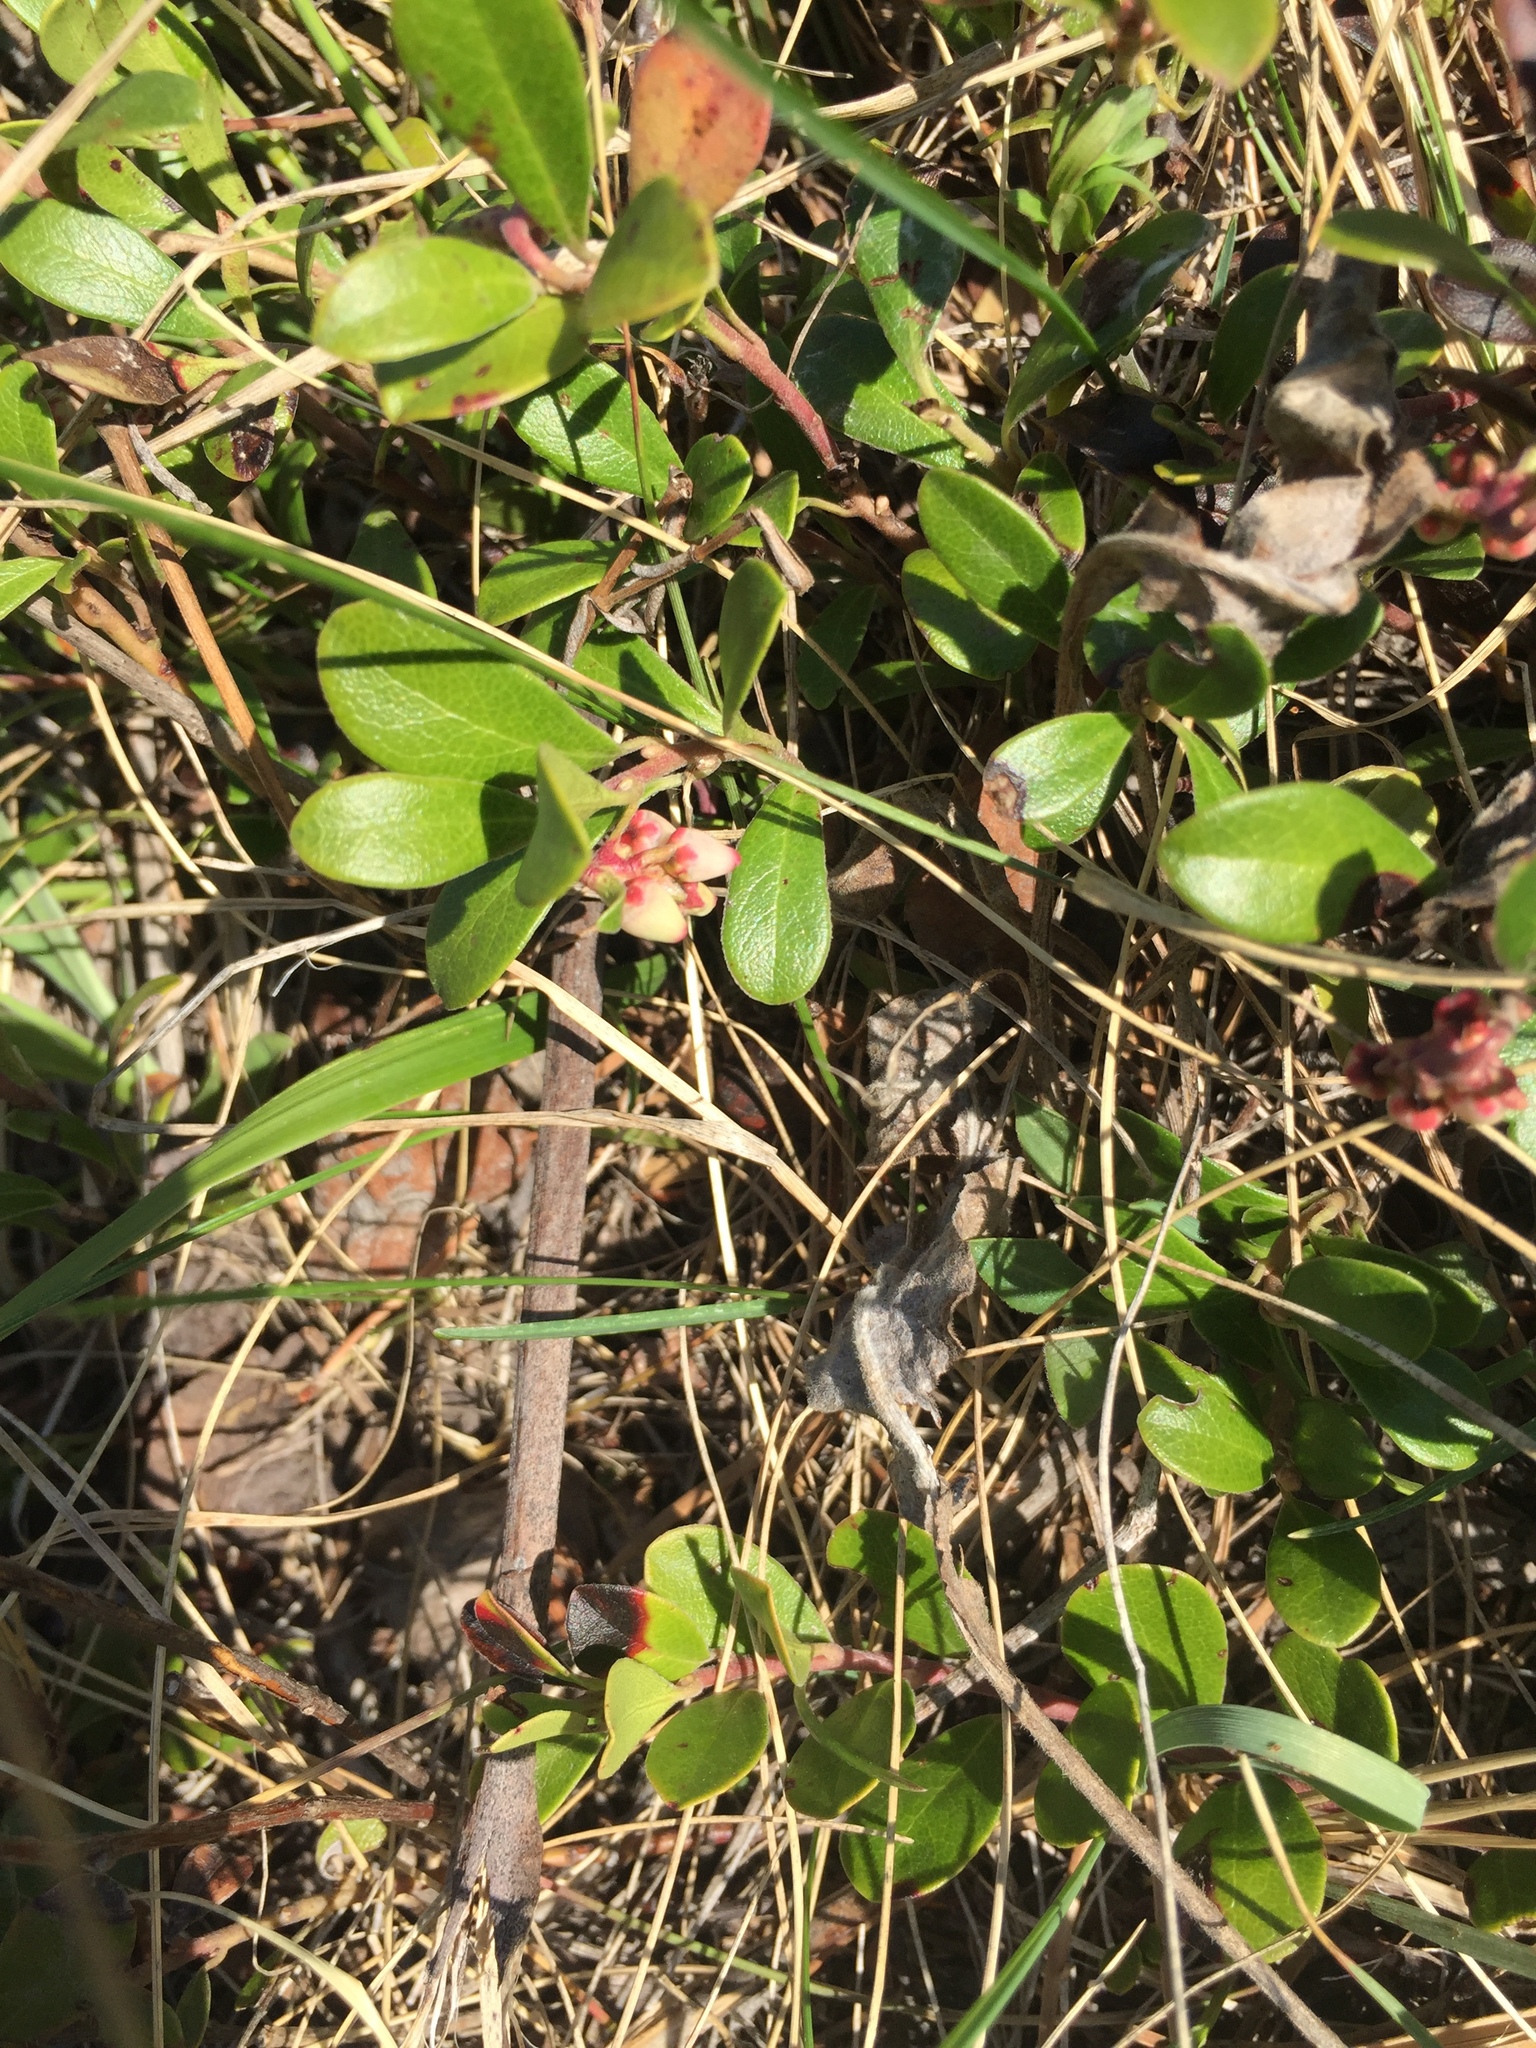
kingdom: Plantae
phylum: Tracheophyta
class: Magnoliopsida
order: Ericales
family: Ericaceae
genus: Arctostaphylos
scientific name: Arctostaphylos uva-ursi
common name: Bearberry
